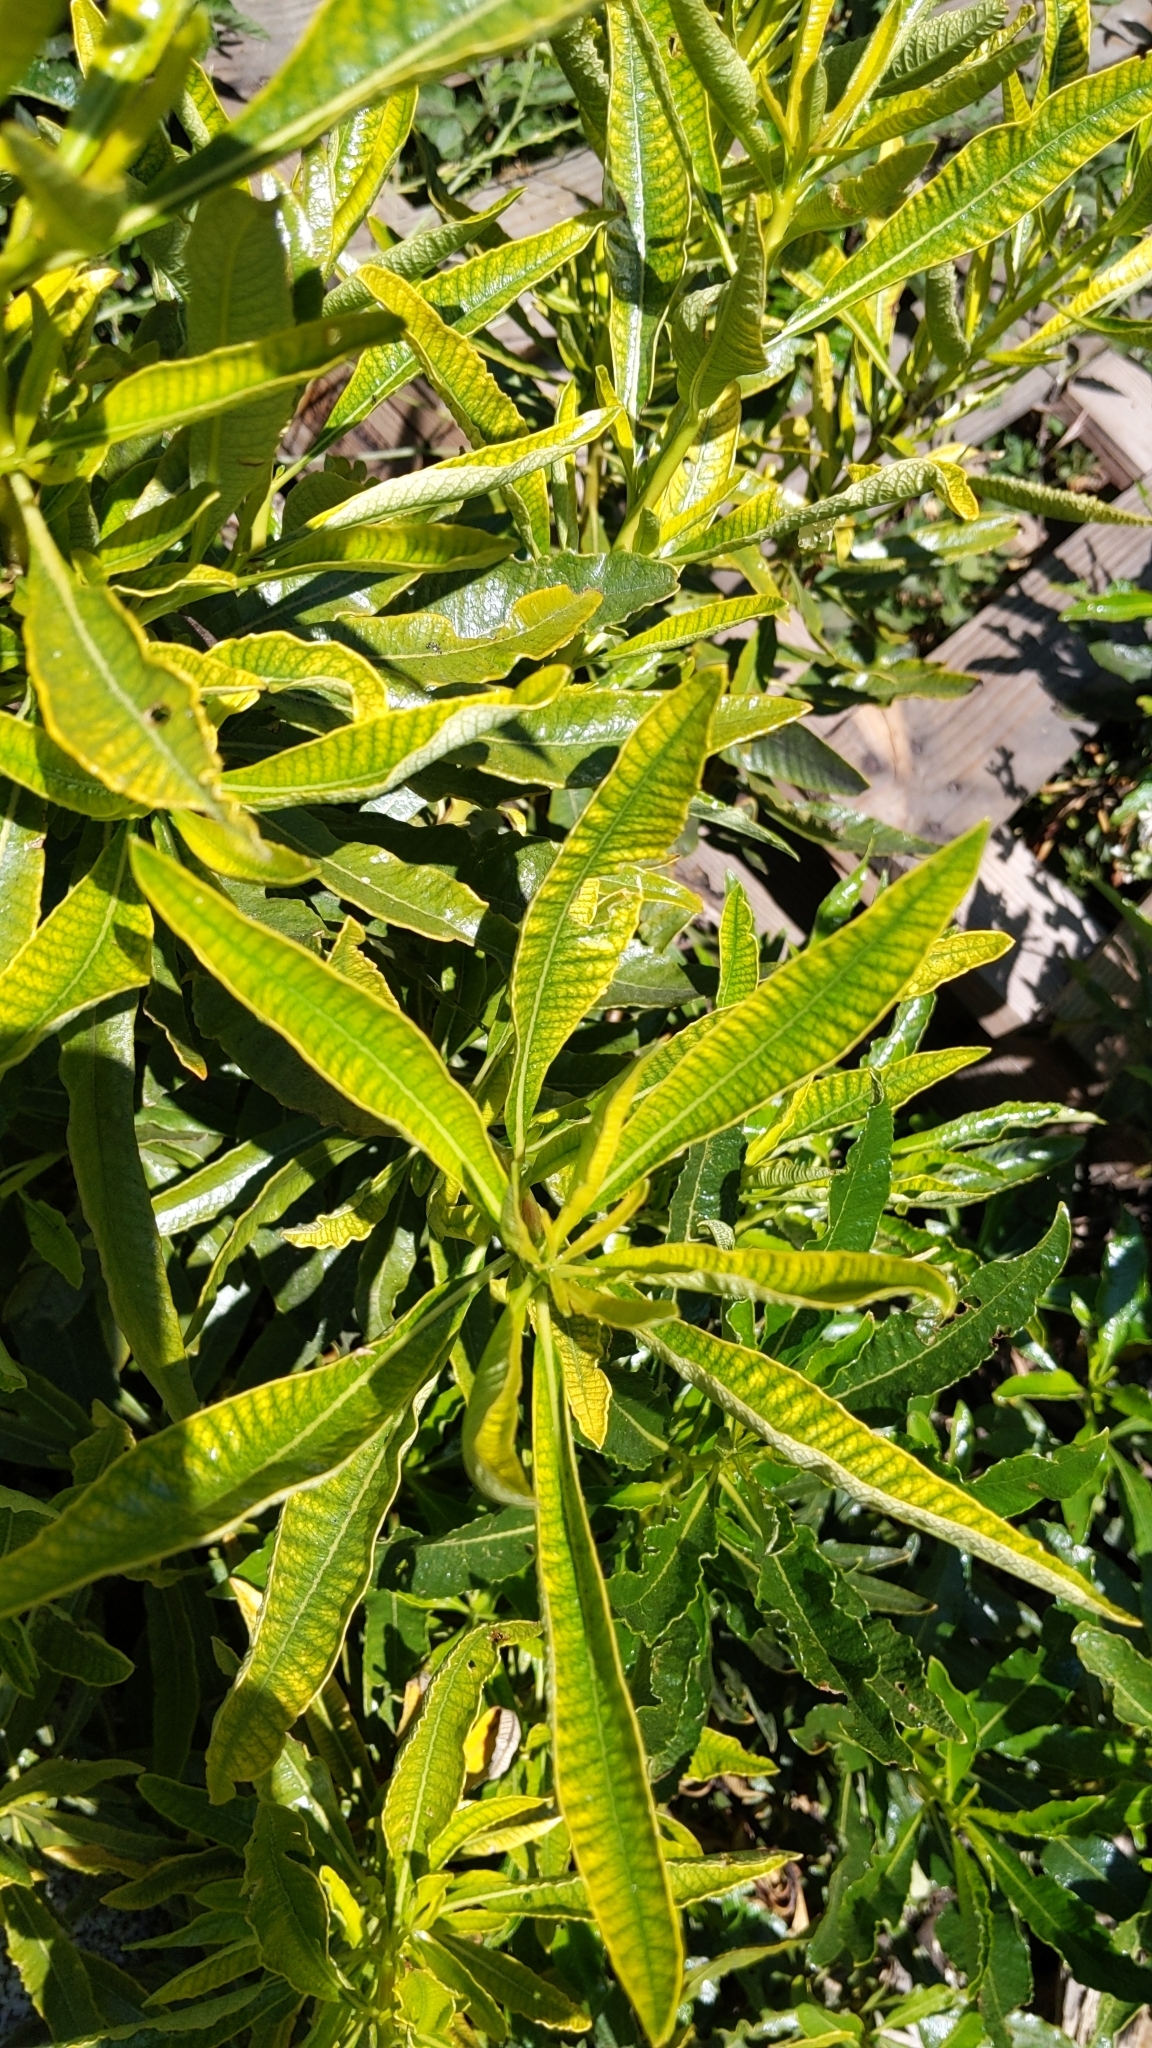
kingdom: Plantae
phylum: Tracheophyta
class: Magnoliopsida
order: Boraginales
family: Namaceae
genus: Eriodictyon
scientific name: Eriodictyon trichocalyx
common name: Hairy yerba-santa
